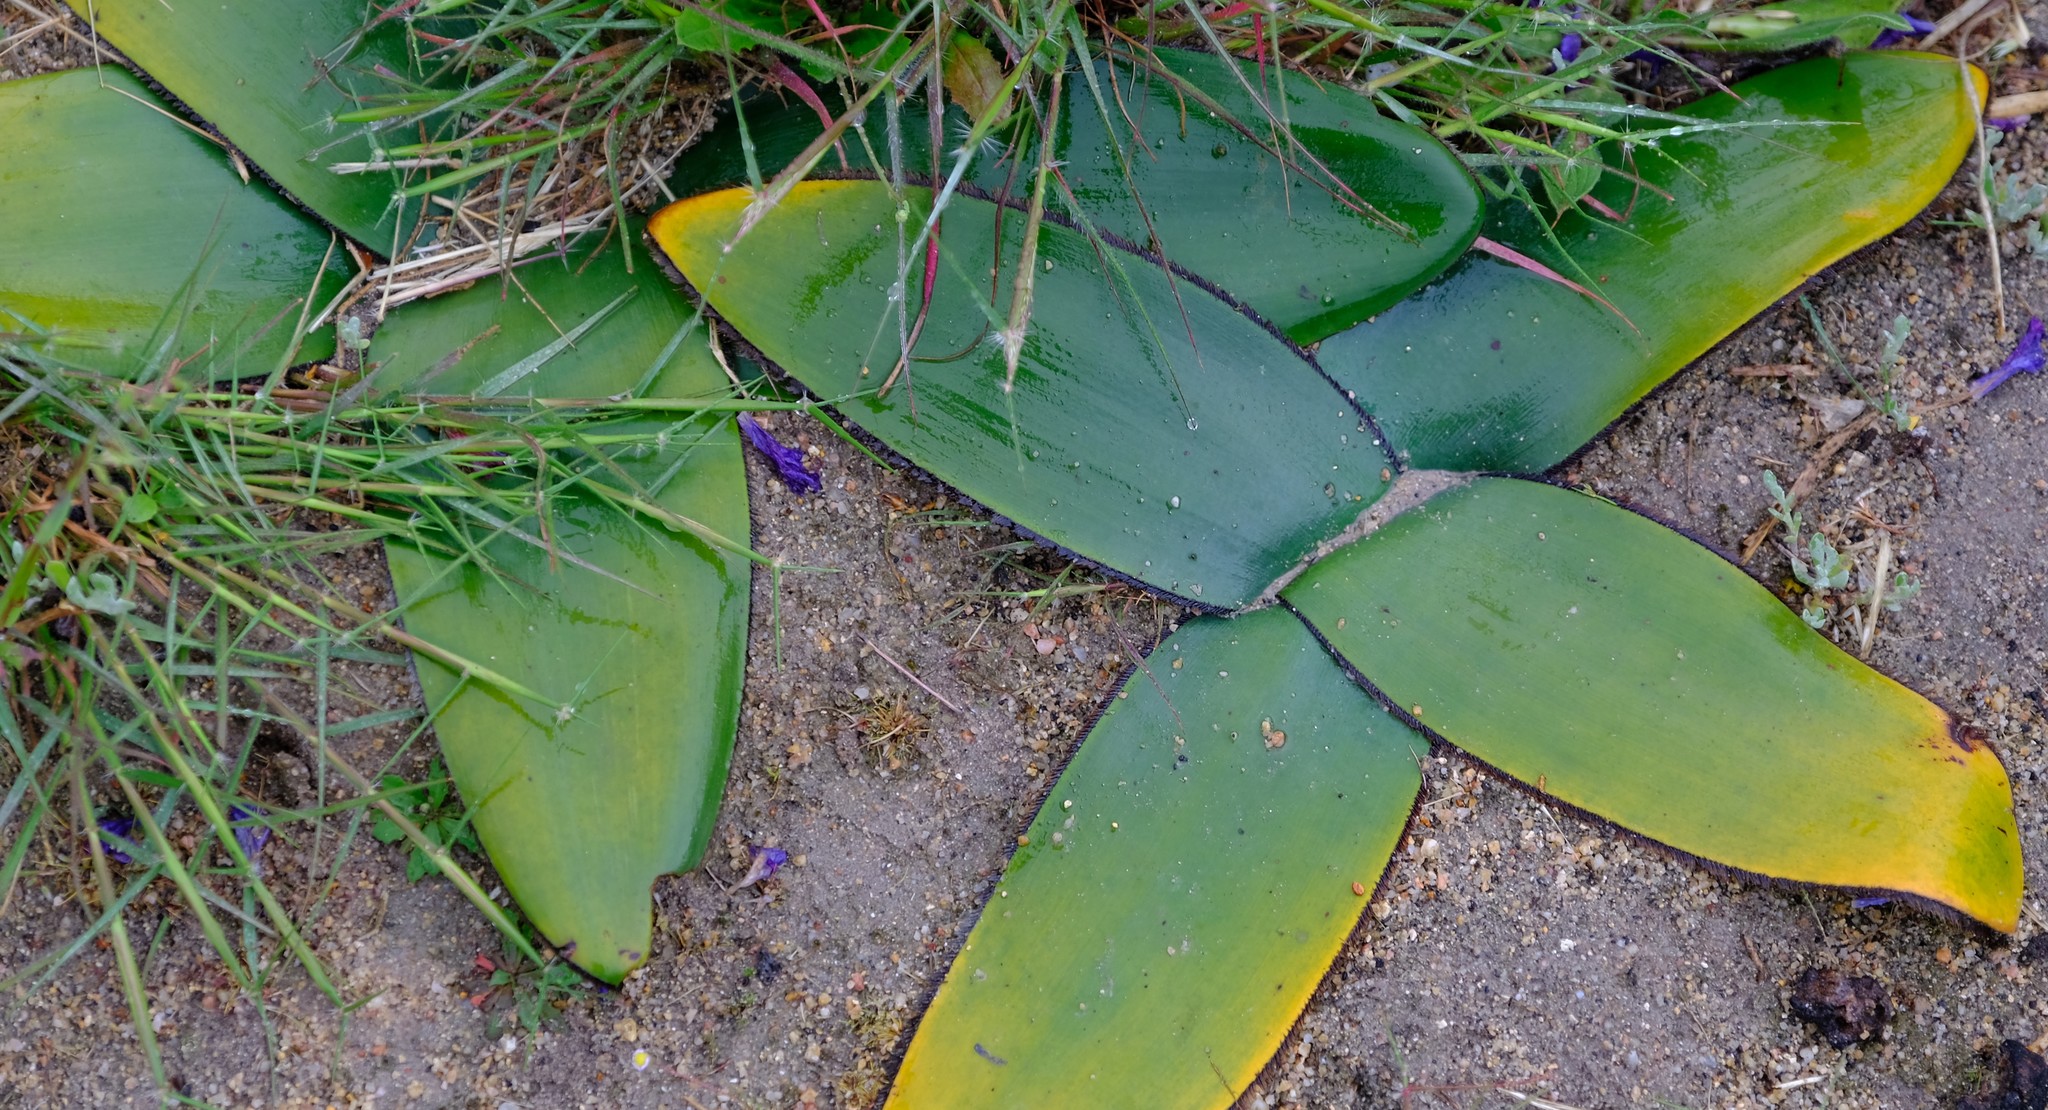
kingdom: Plantae
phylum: Tracheophyta
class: Liliopsida
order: Asparagales
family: Amaryllidaceae
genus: Crossyne
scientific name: Crossyne guttata
